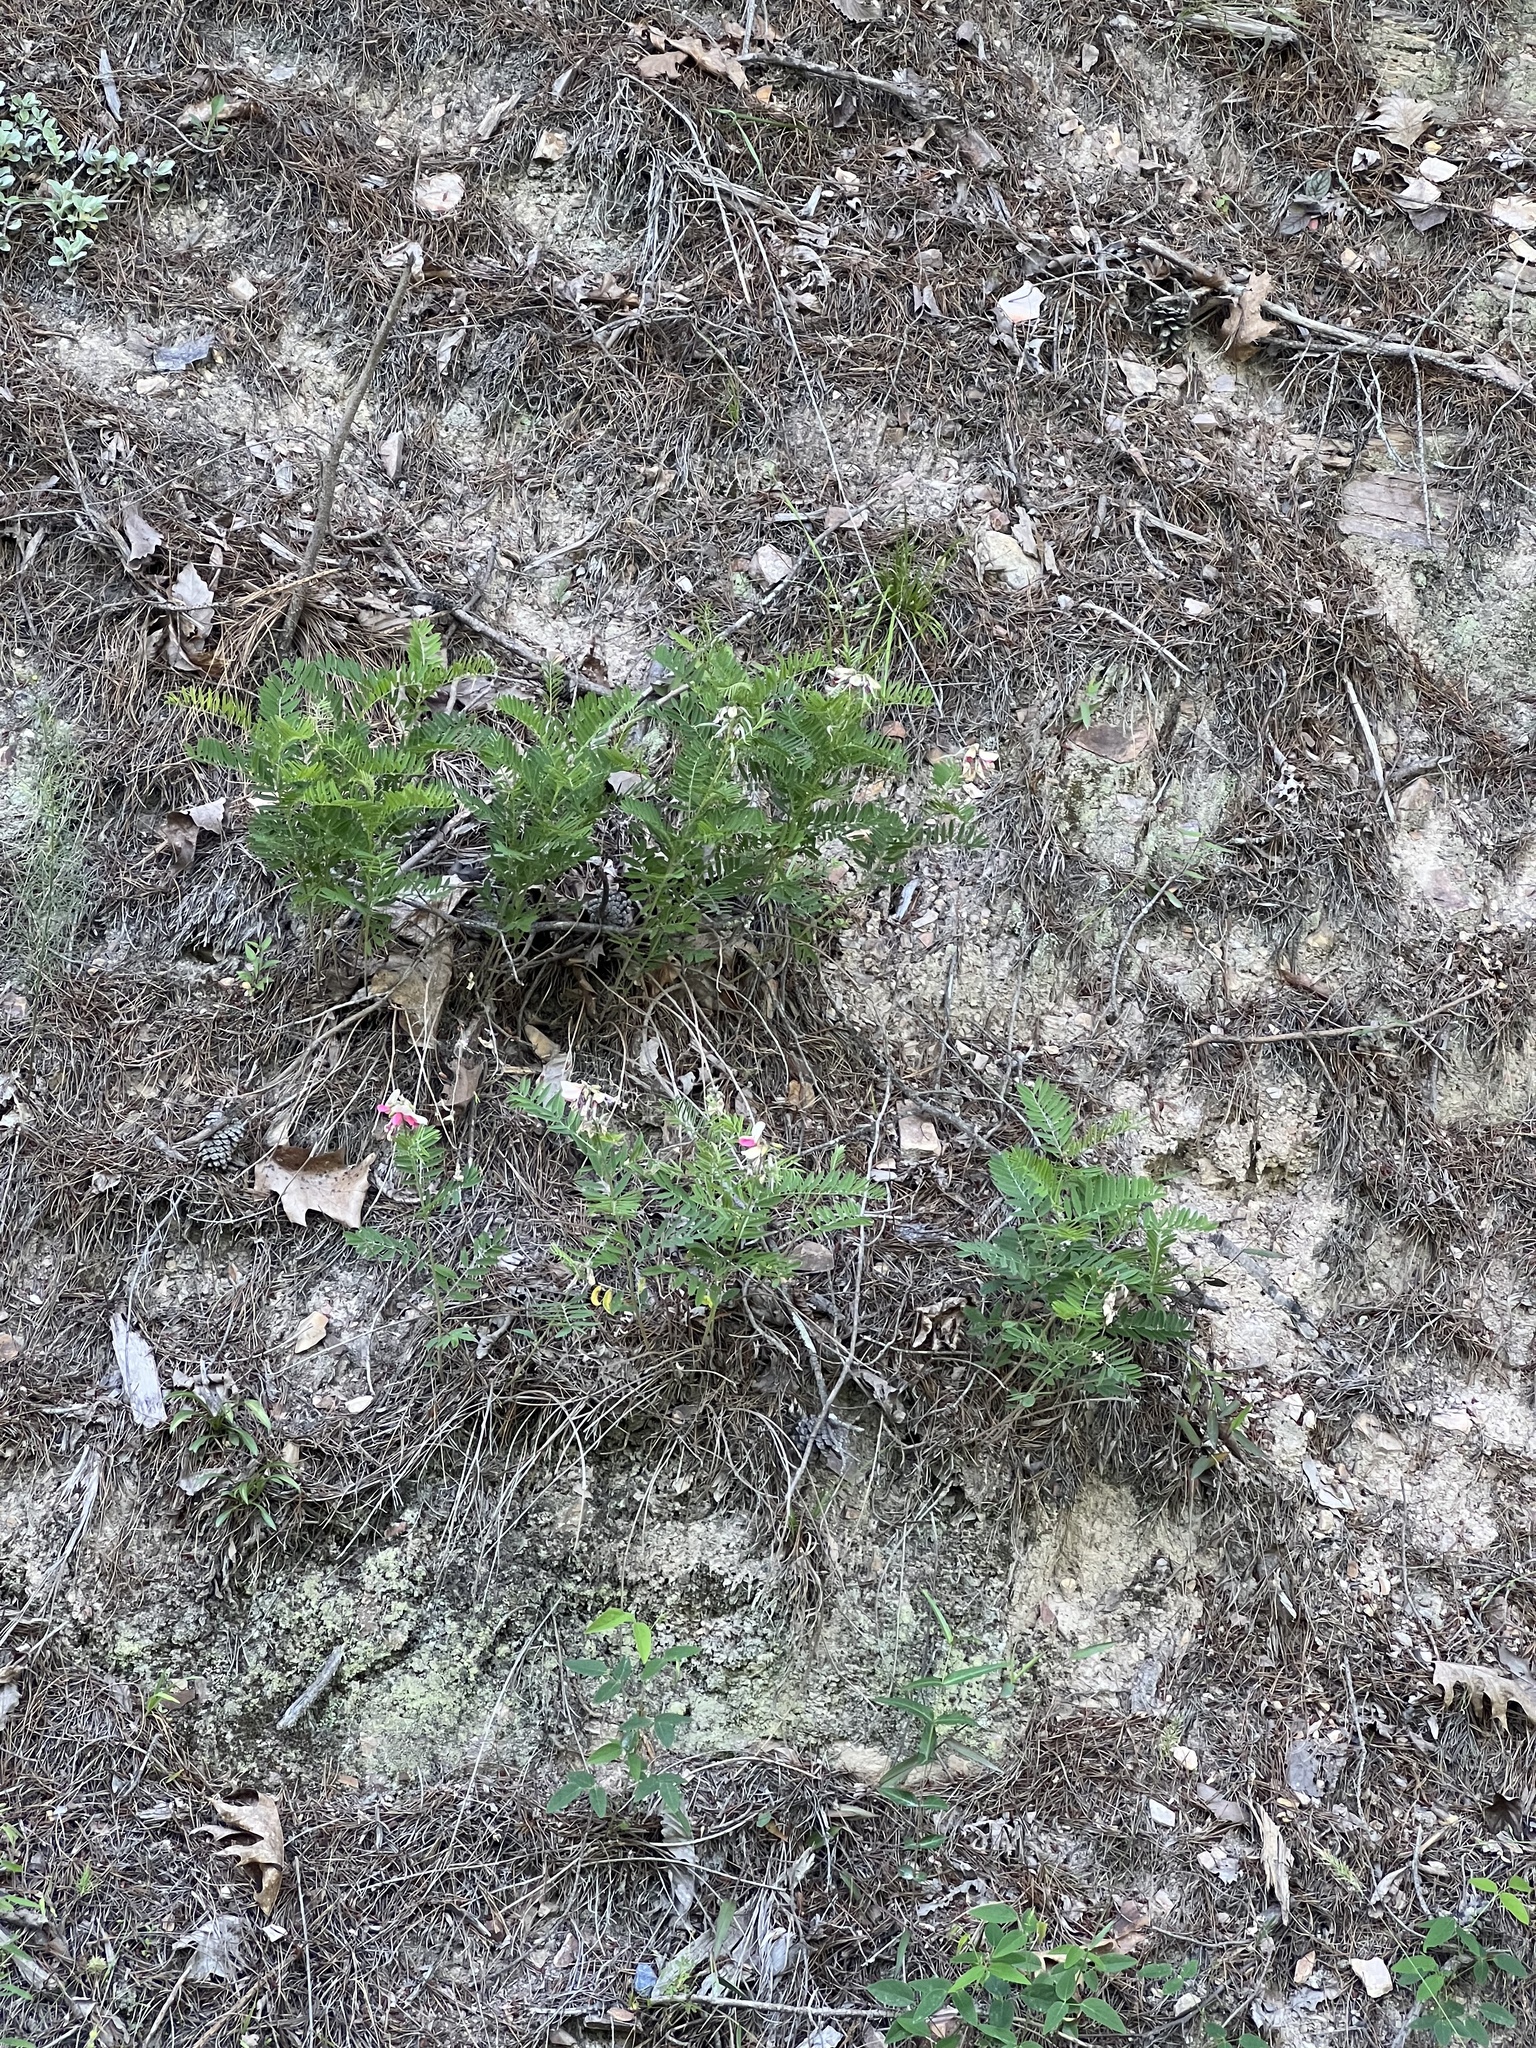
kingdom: Plantae
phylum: Tracheophyta
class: Magnoliopsida
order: Fabales
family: Fabaceae
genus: Tephrosia
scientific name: Tephrosia virginiana
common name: Rabbit-pea
